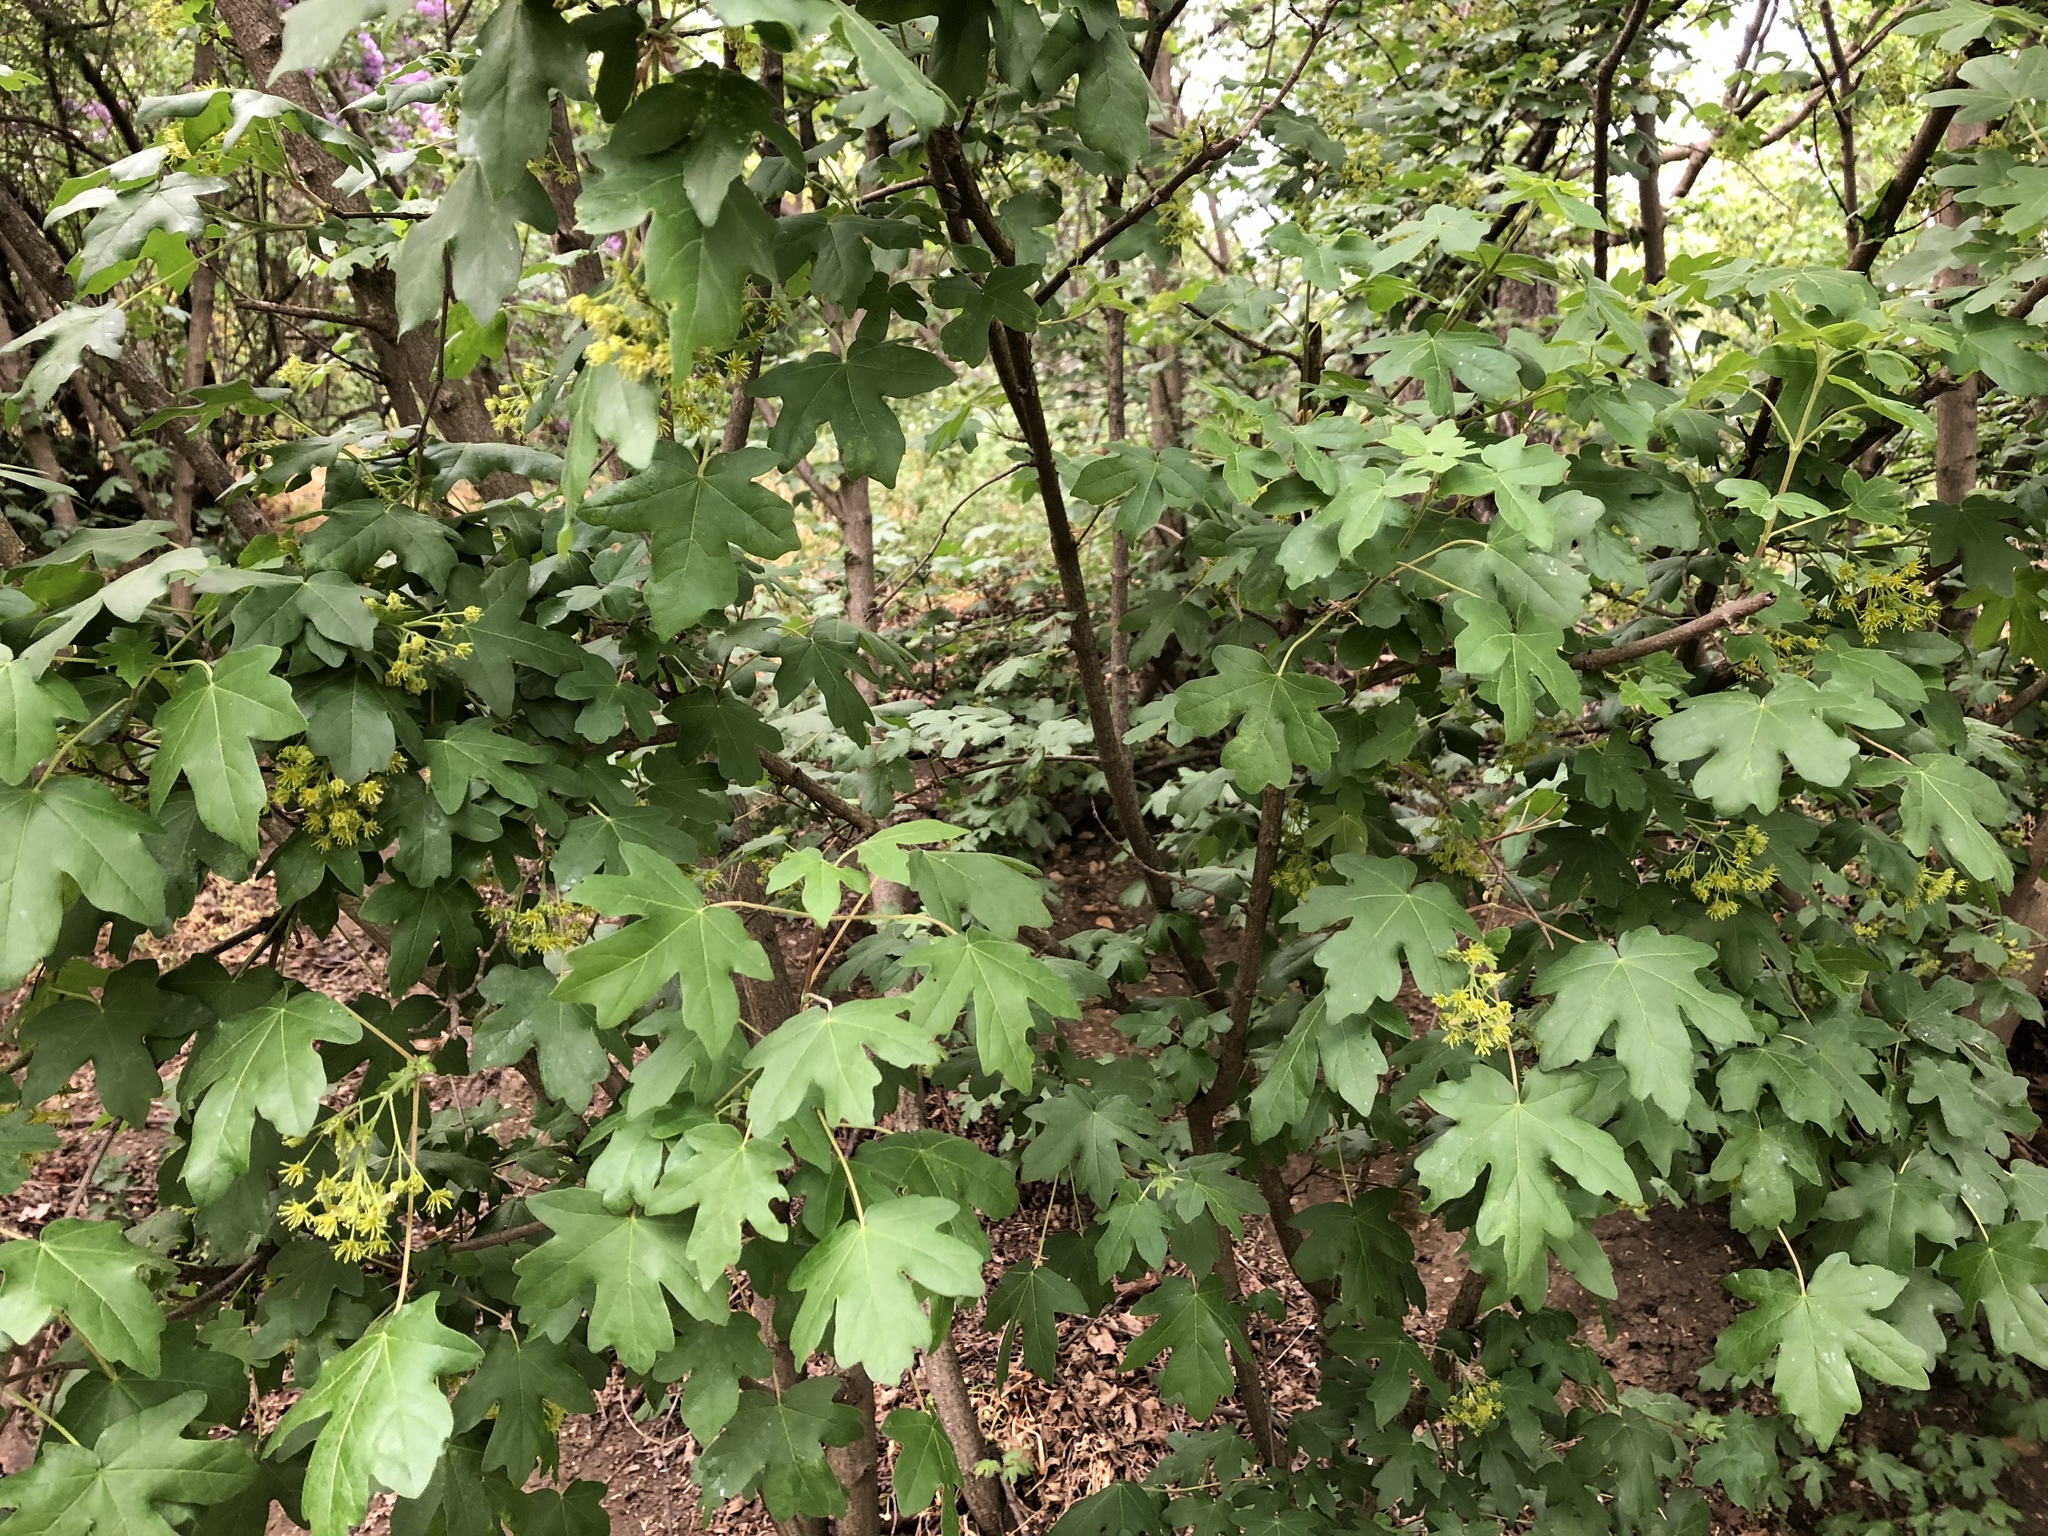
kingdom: Plantae
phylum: Tracheophyta
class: Magnoliopsida
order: Sapindales
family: Sapindaceae
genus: Acer
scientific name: Acer campestre
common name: Field maple
